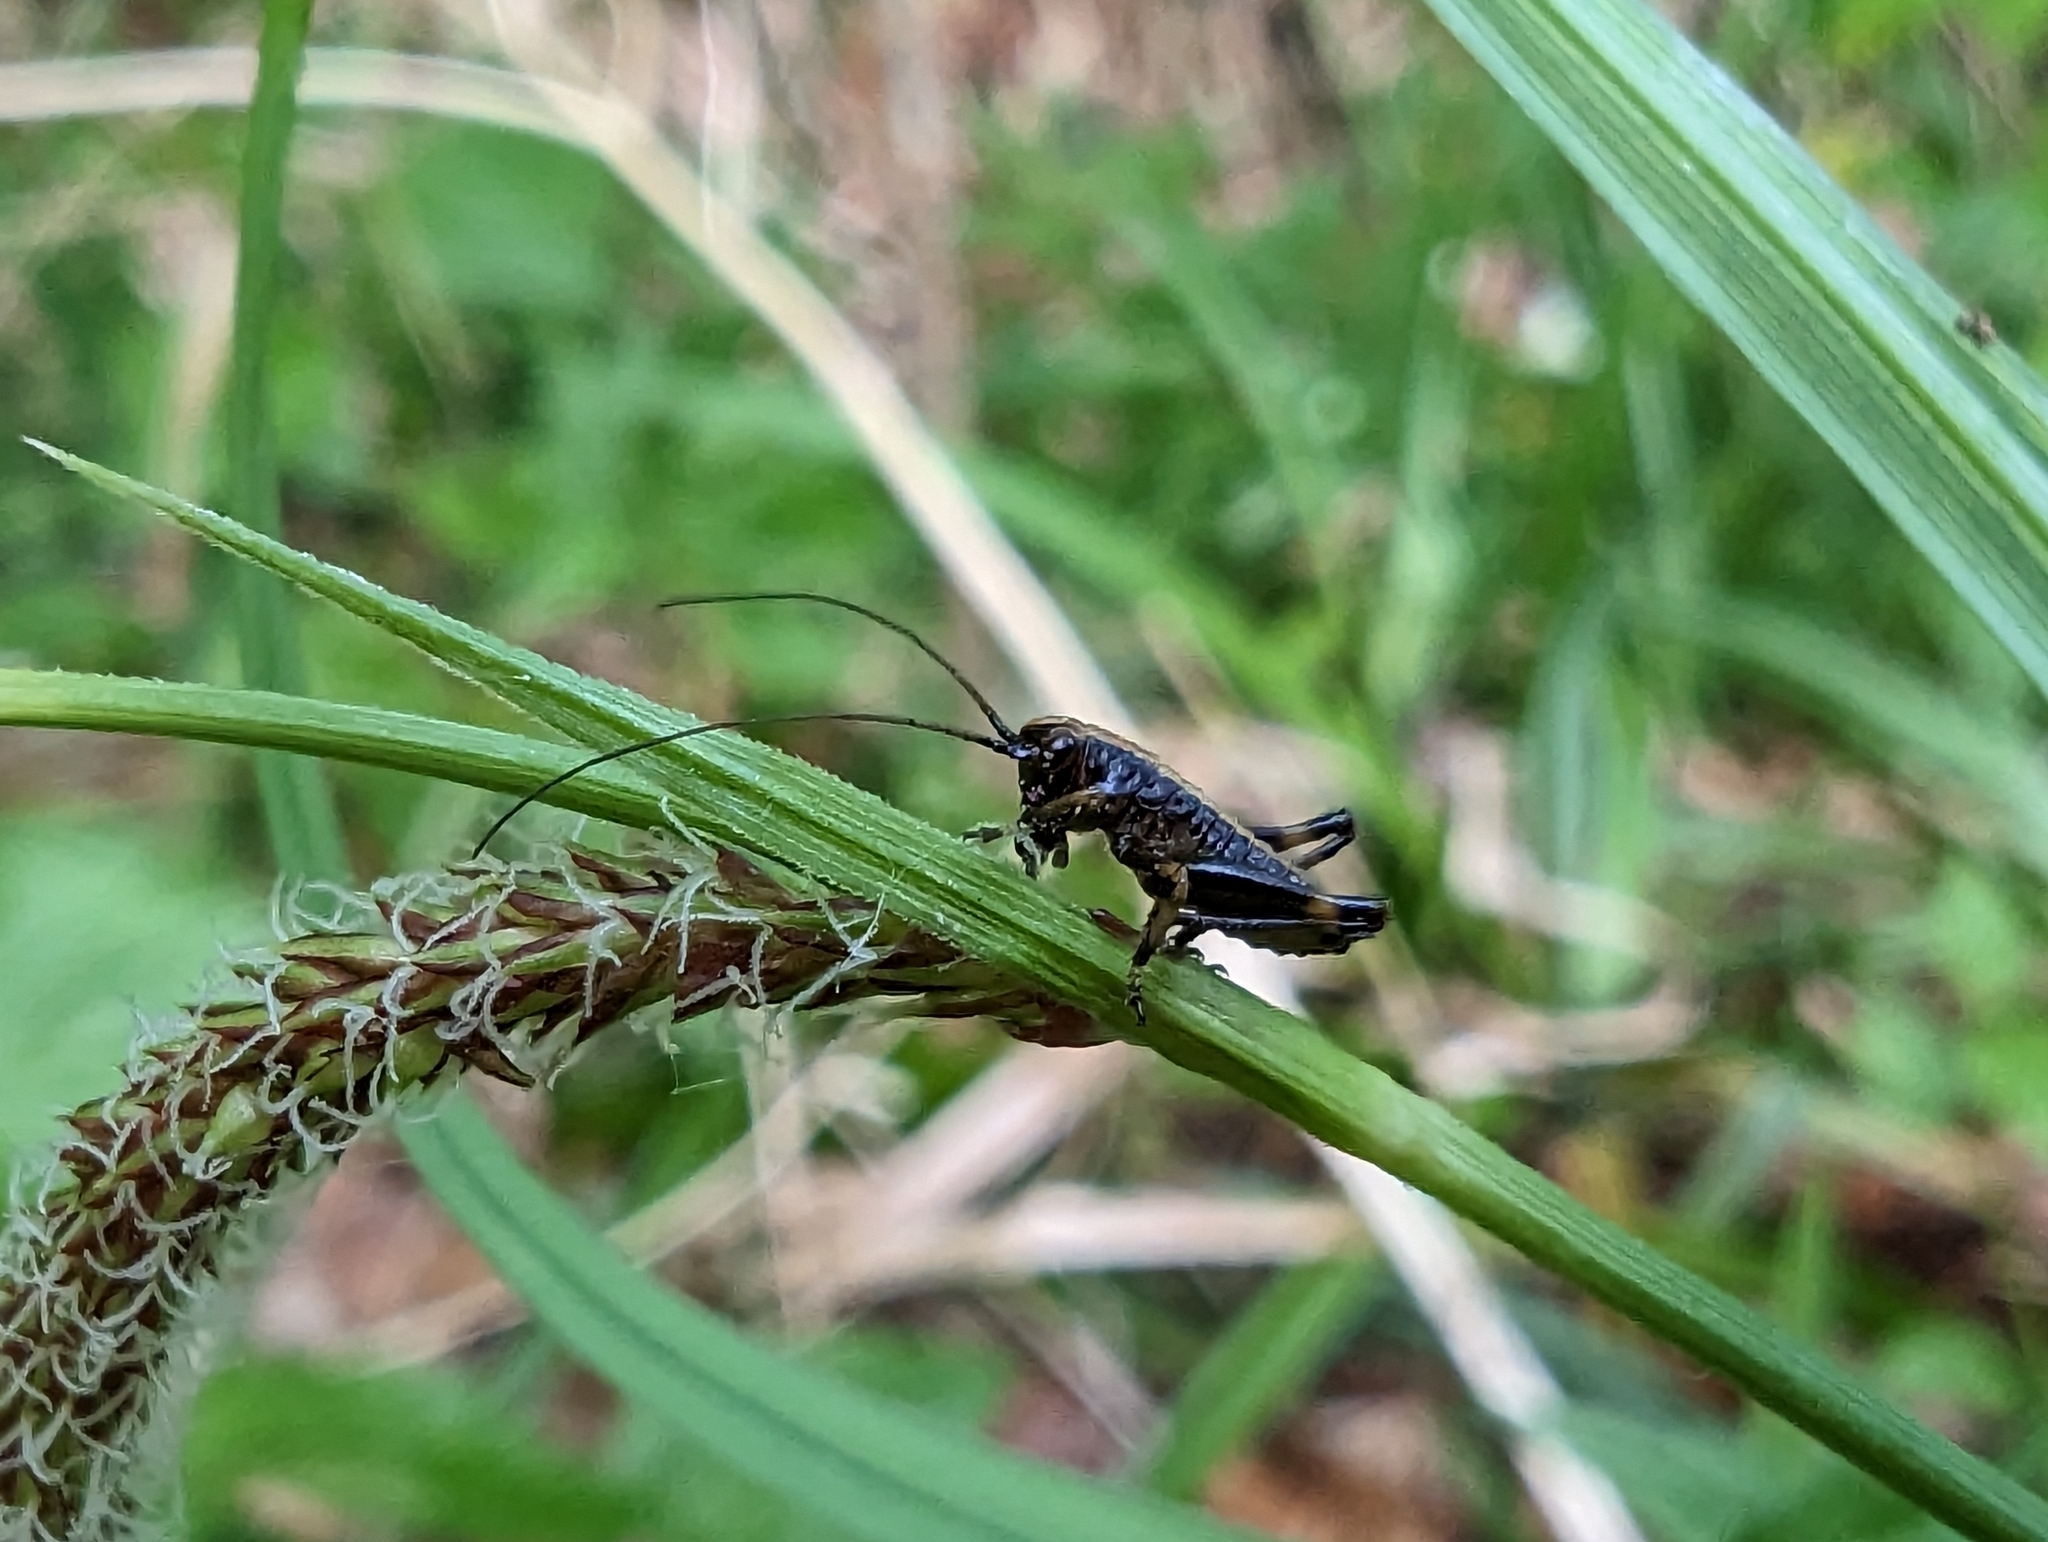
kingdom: Animalia
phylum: Arthropoda
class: Insecta
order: Orthoptera
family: Tettigoniidae
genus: Pholidoptera
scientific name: Pholidoptera griseoaptera
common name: Dark bush-cricket
